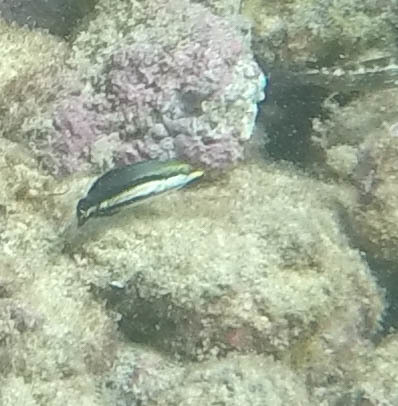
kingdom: Animalia
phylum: Chordata
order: Perciformes
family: Labridae
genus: Gomphosus
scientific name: Gomphosus varius
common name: Bird wrasse
